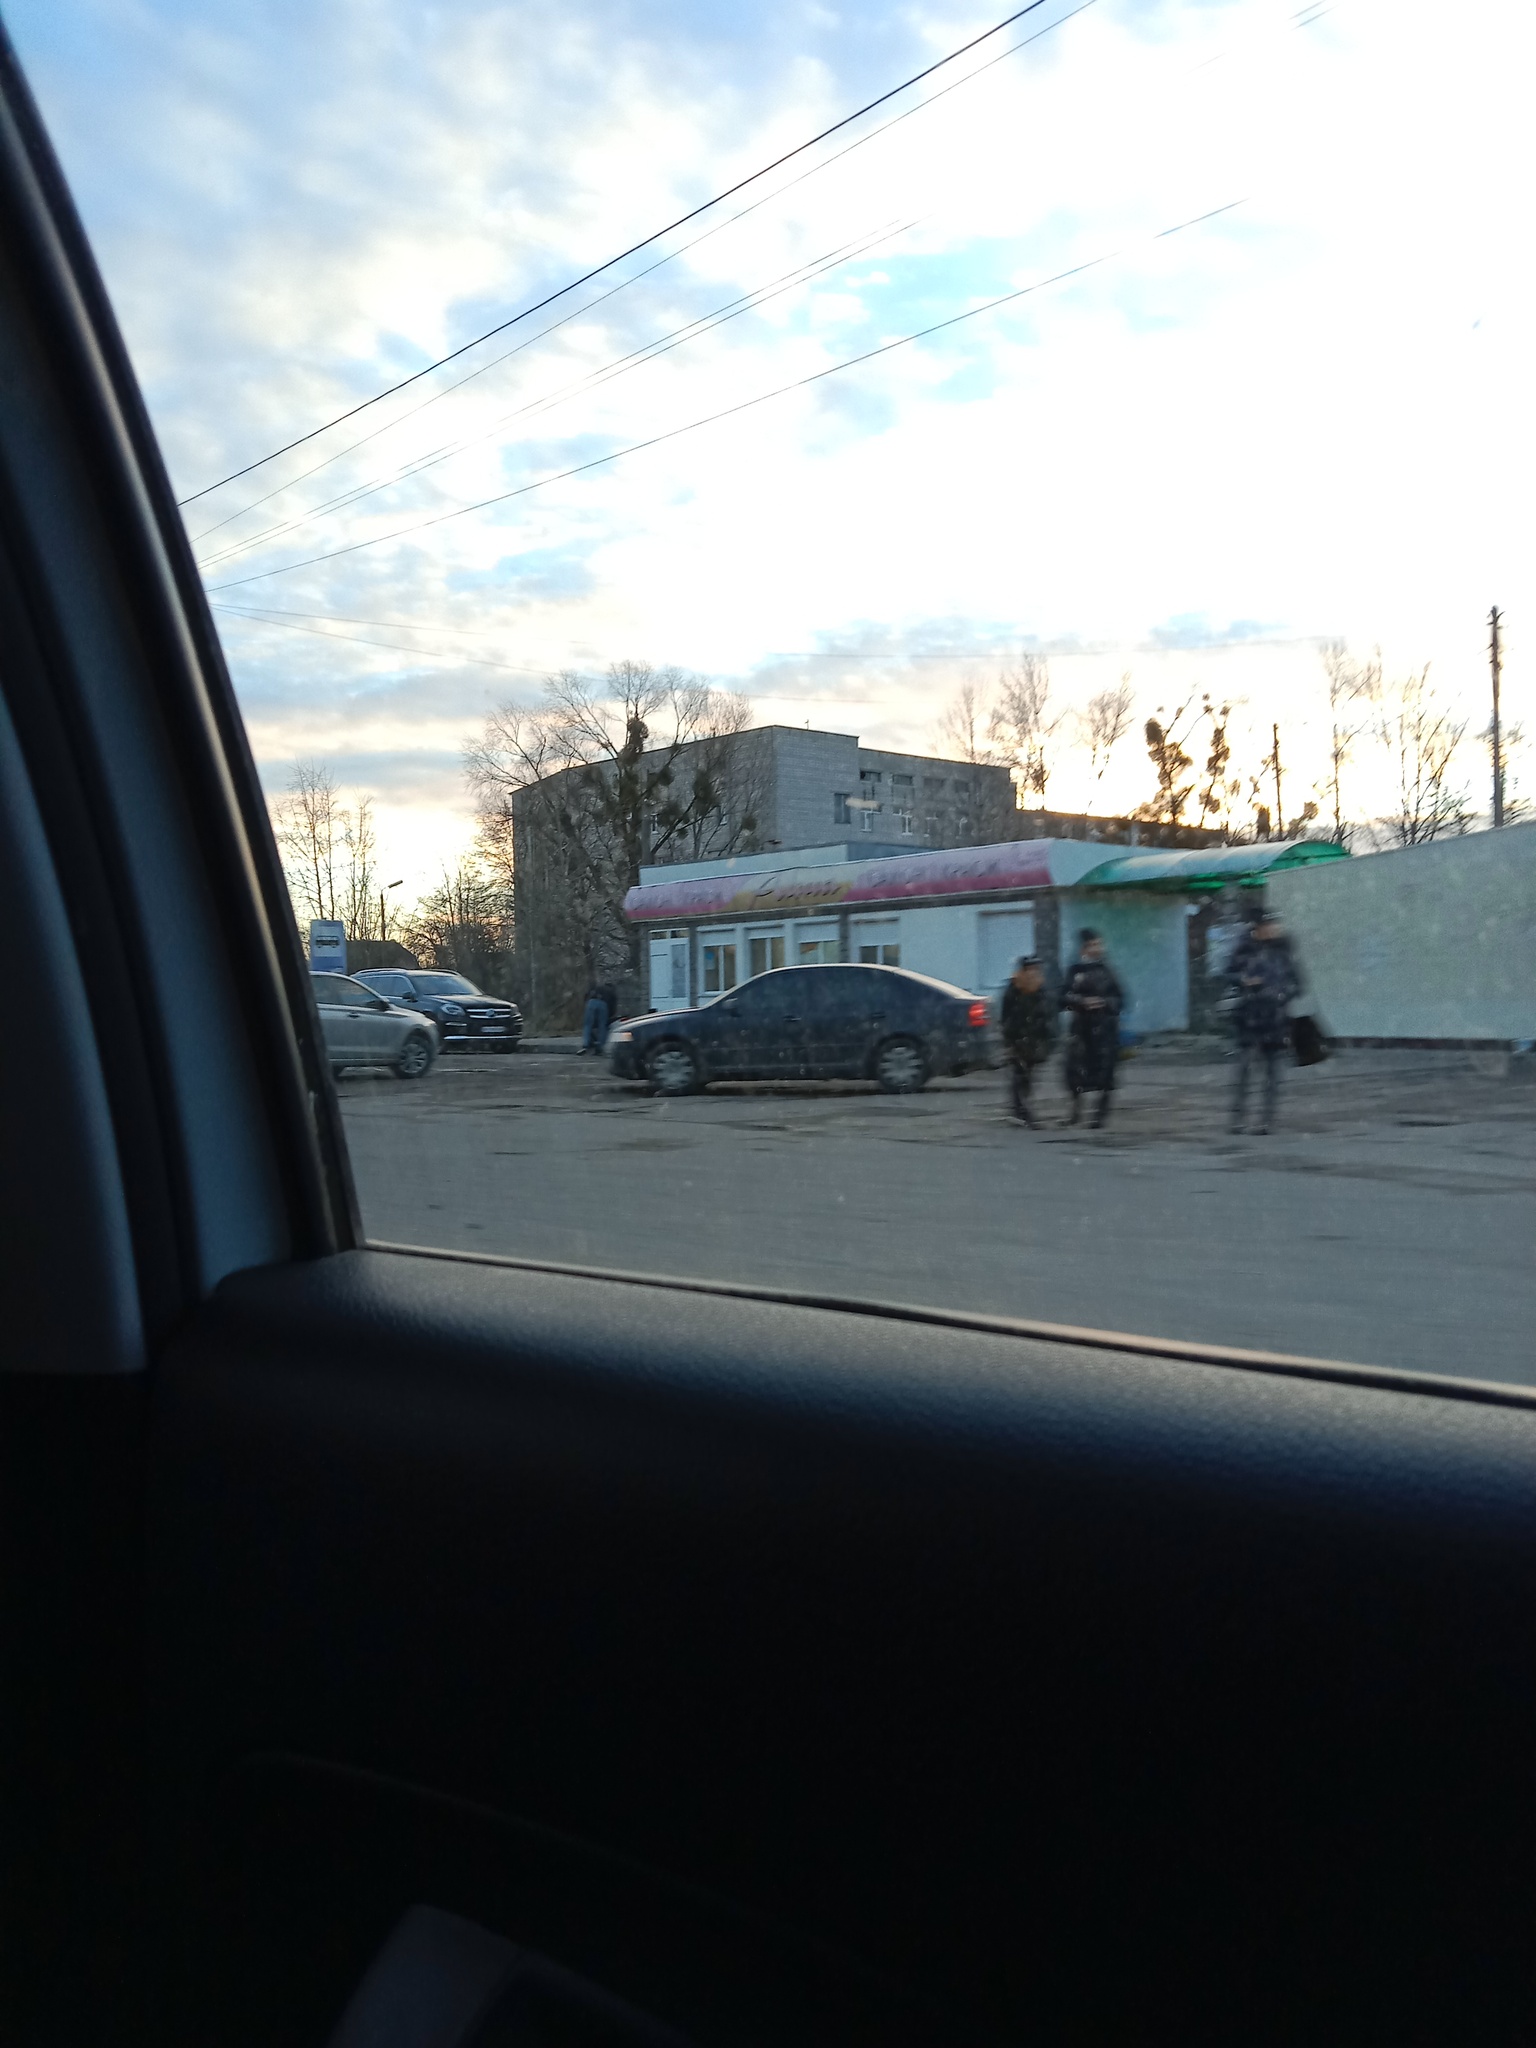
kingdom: Plantae
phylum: Tracheophyta
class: Magnoliopsida
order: Santalales
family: Viscaceae
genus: Viscum
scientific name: Viscum album
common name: Mistletoe
